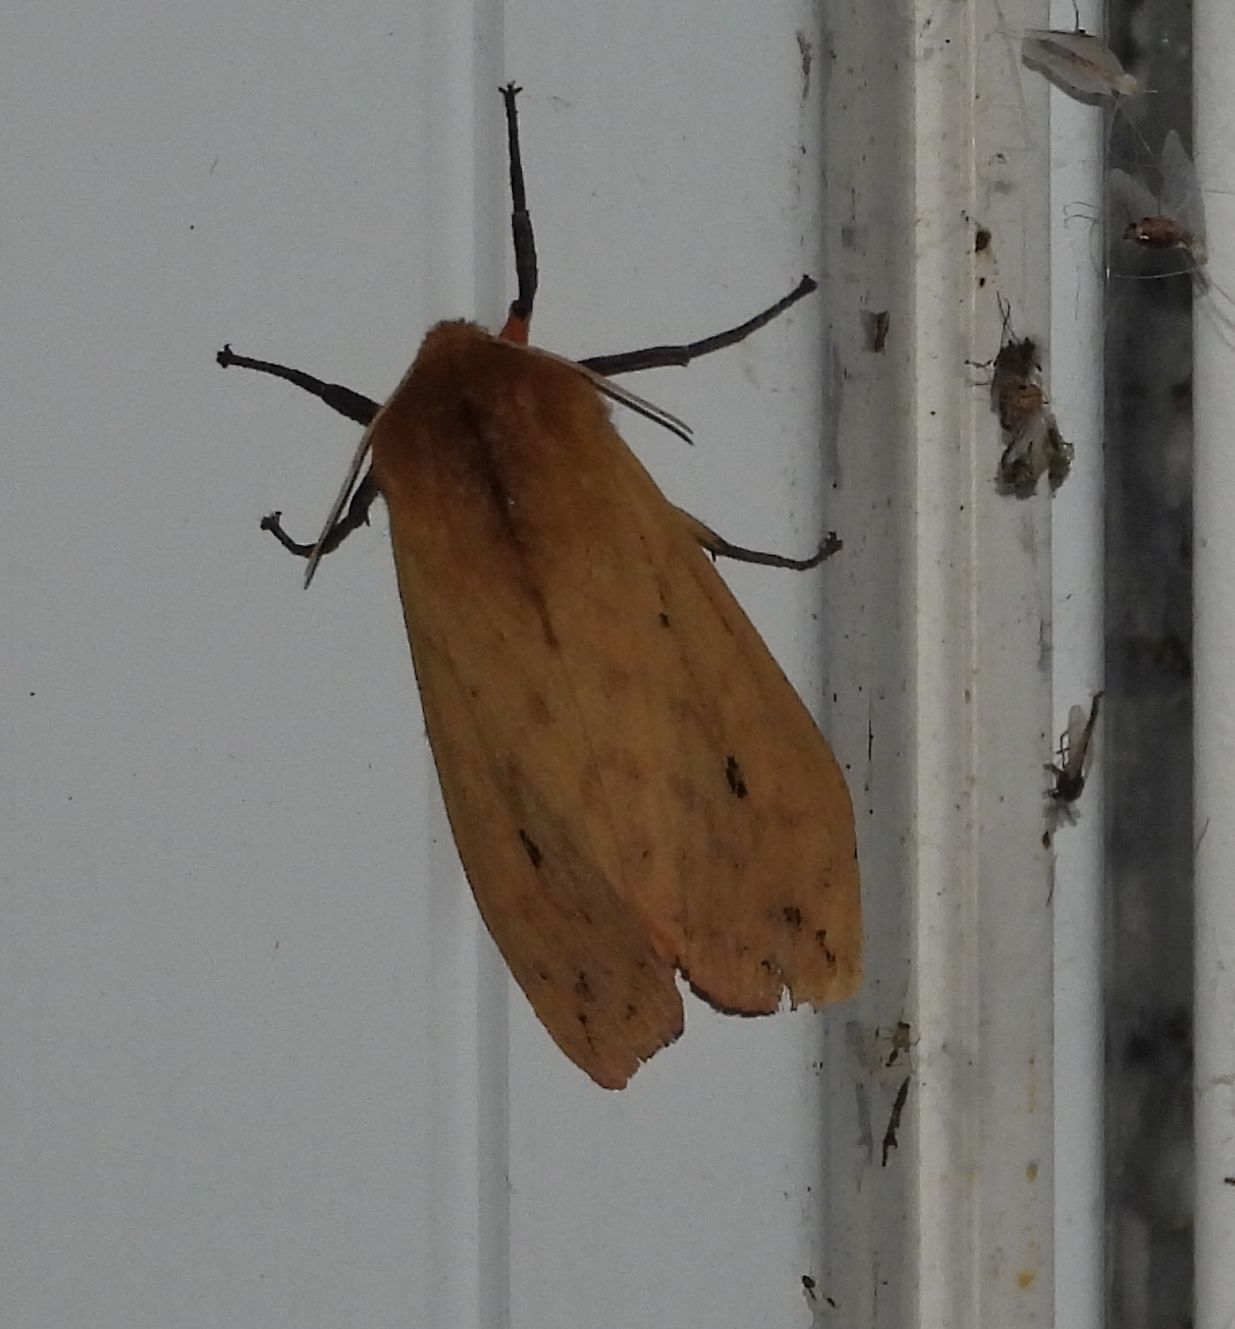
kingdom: Animalia
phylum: Arthropoda
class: Insecta
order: Lepidoptera
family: Erebidae
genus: Pyrrharctia
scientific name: Pyrrharctia isabella
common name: Isabella tiger moth
